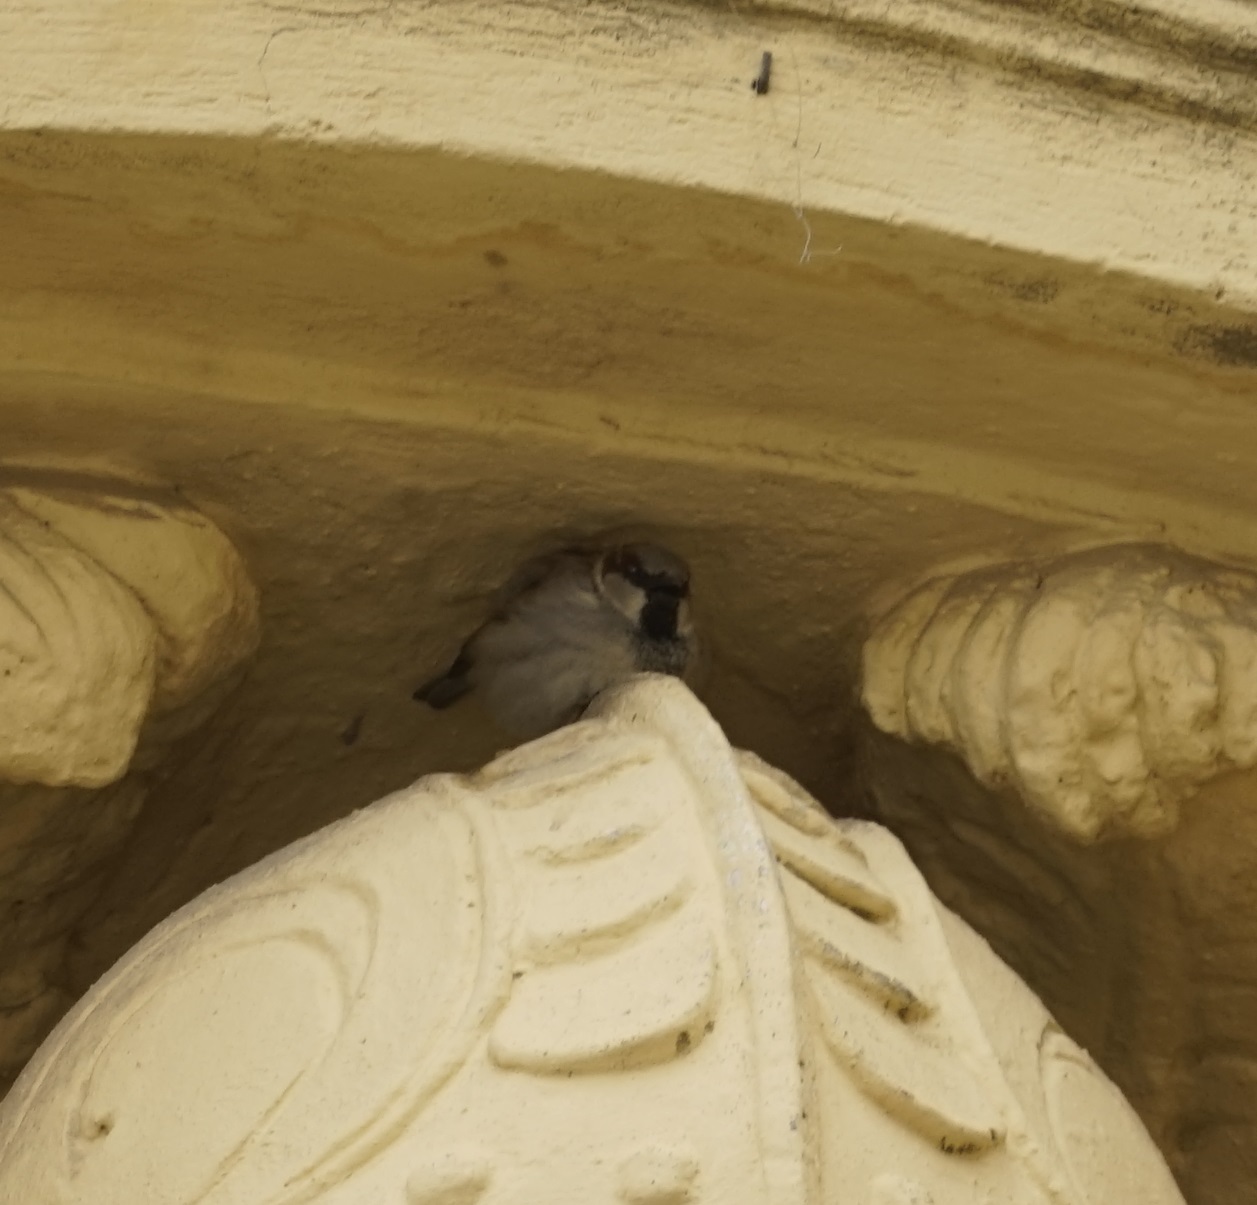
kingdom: Animalia
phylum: Chordata
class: Aves
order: Passeriformes
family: Passeridae
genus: Passer
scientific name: Passer domesticus
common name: House sparrow
